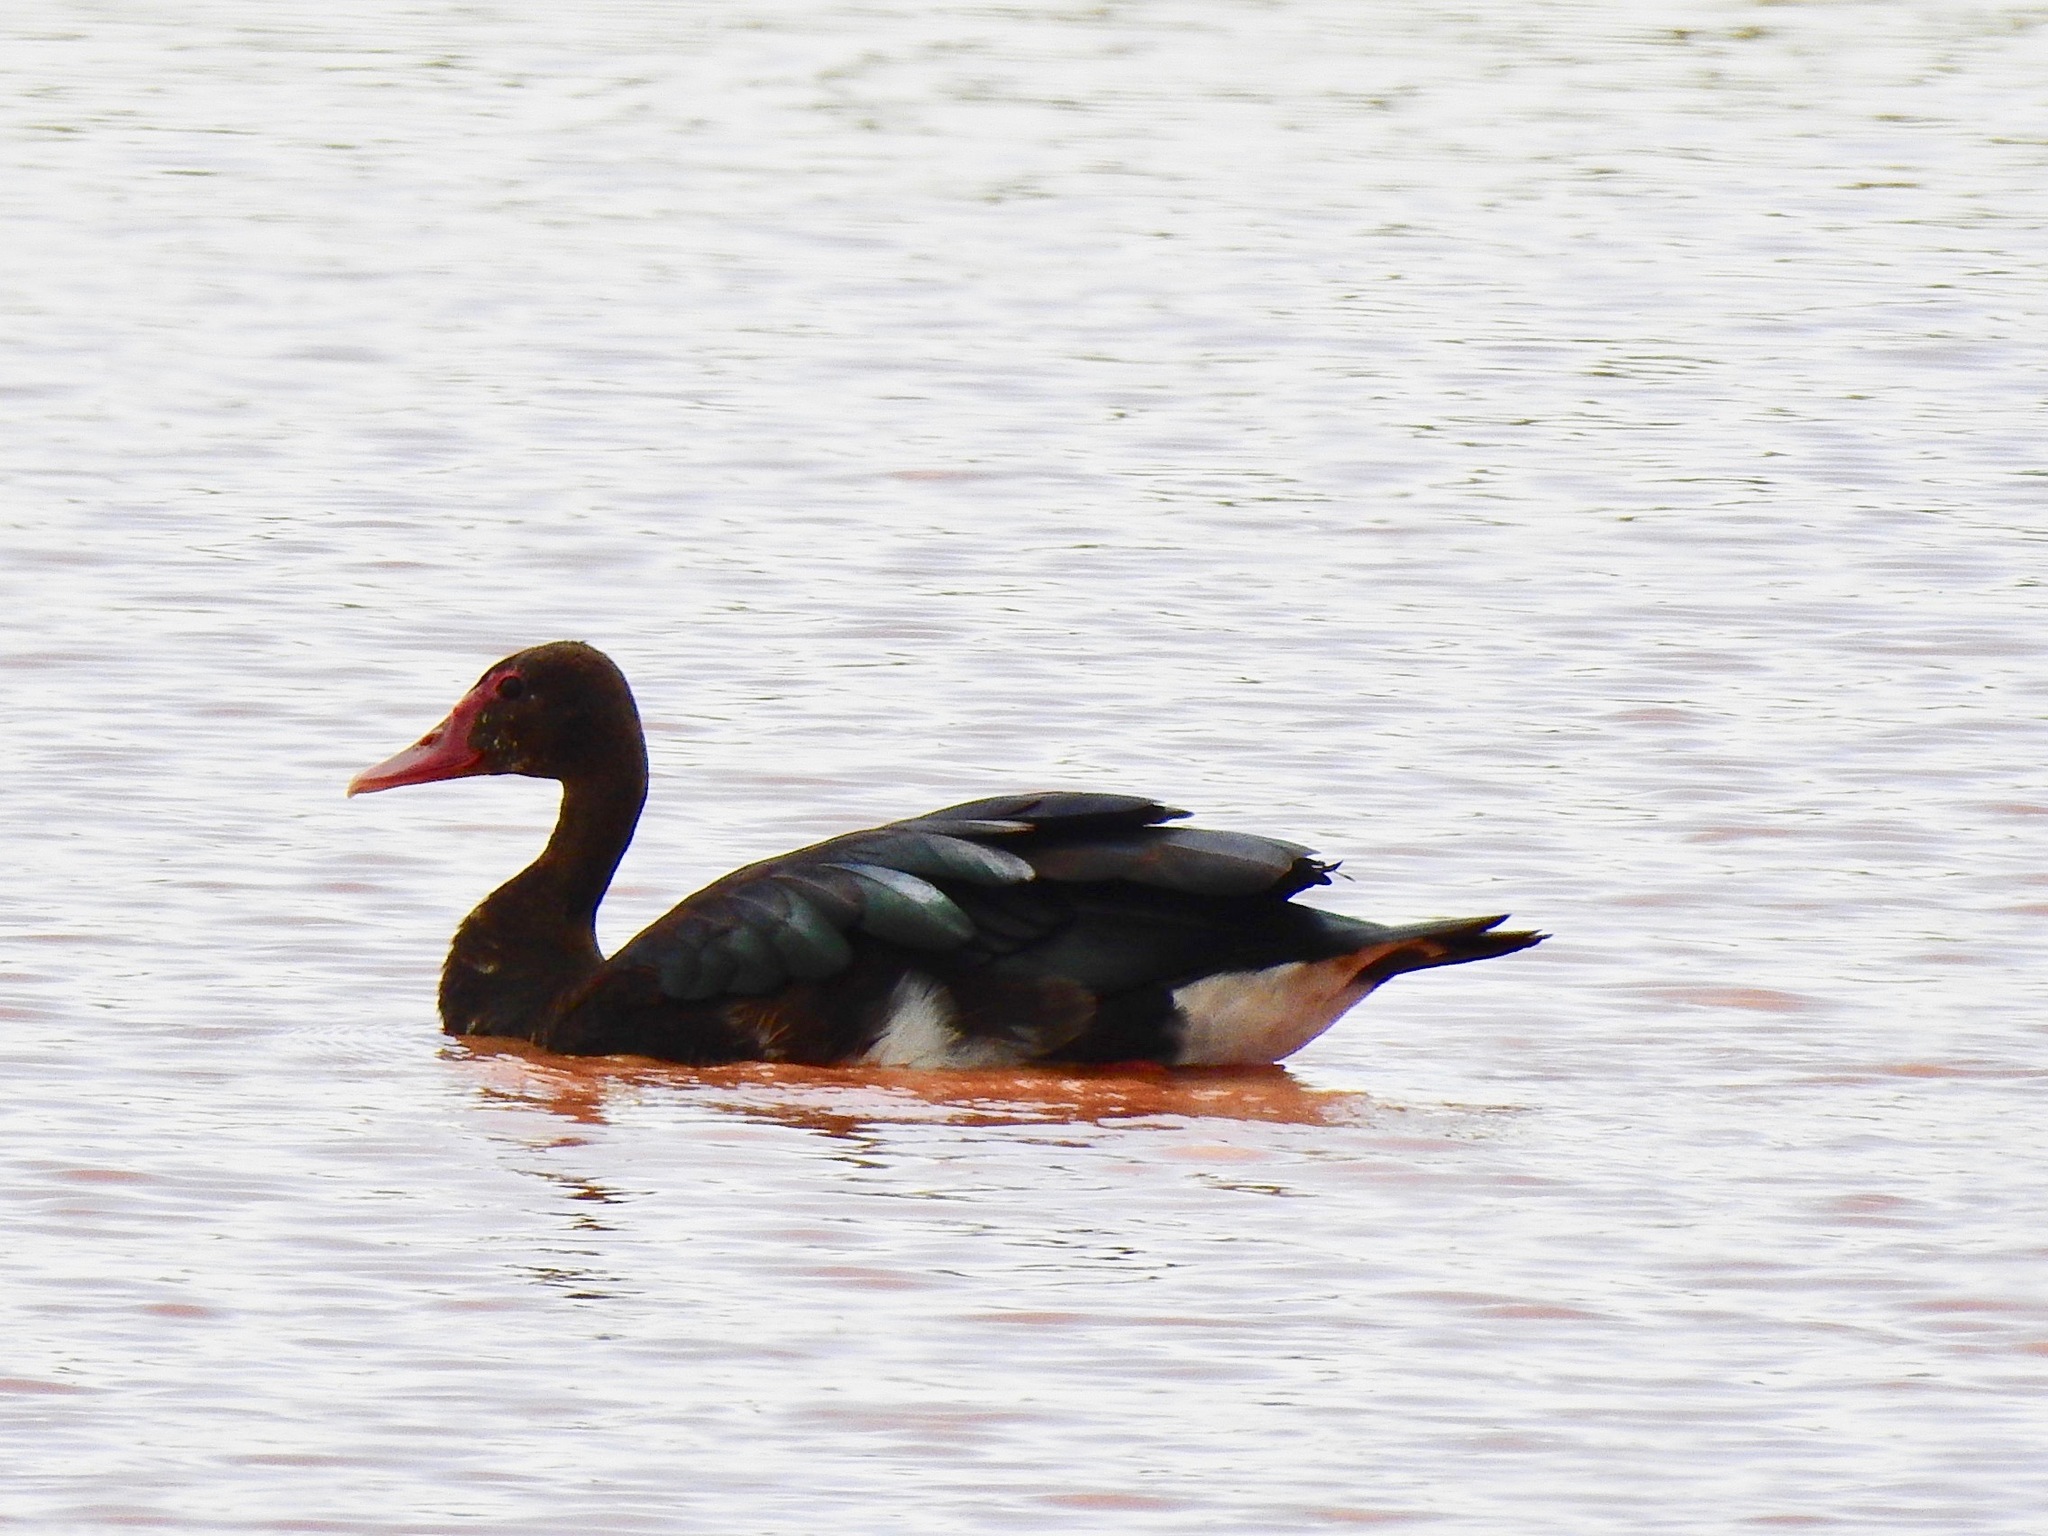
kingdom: Animalia
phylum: Chordata
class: Aves
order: Anseriformes
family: Anatidae
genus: Plectropterus
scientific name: Plectropterus gambensis
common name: Spur-winged goose
